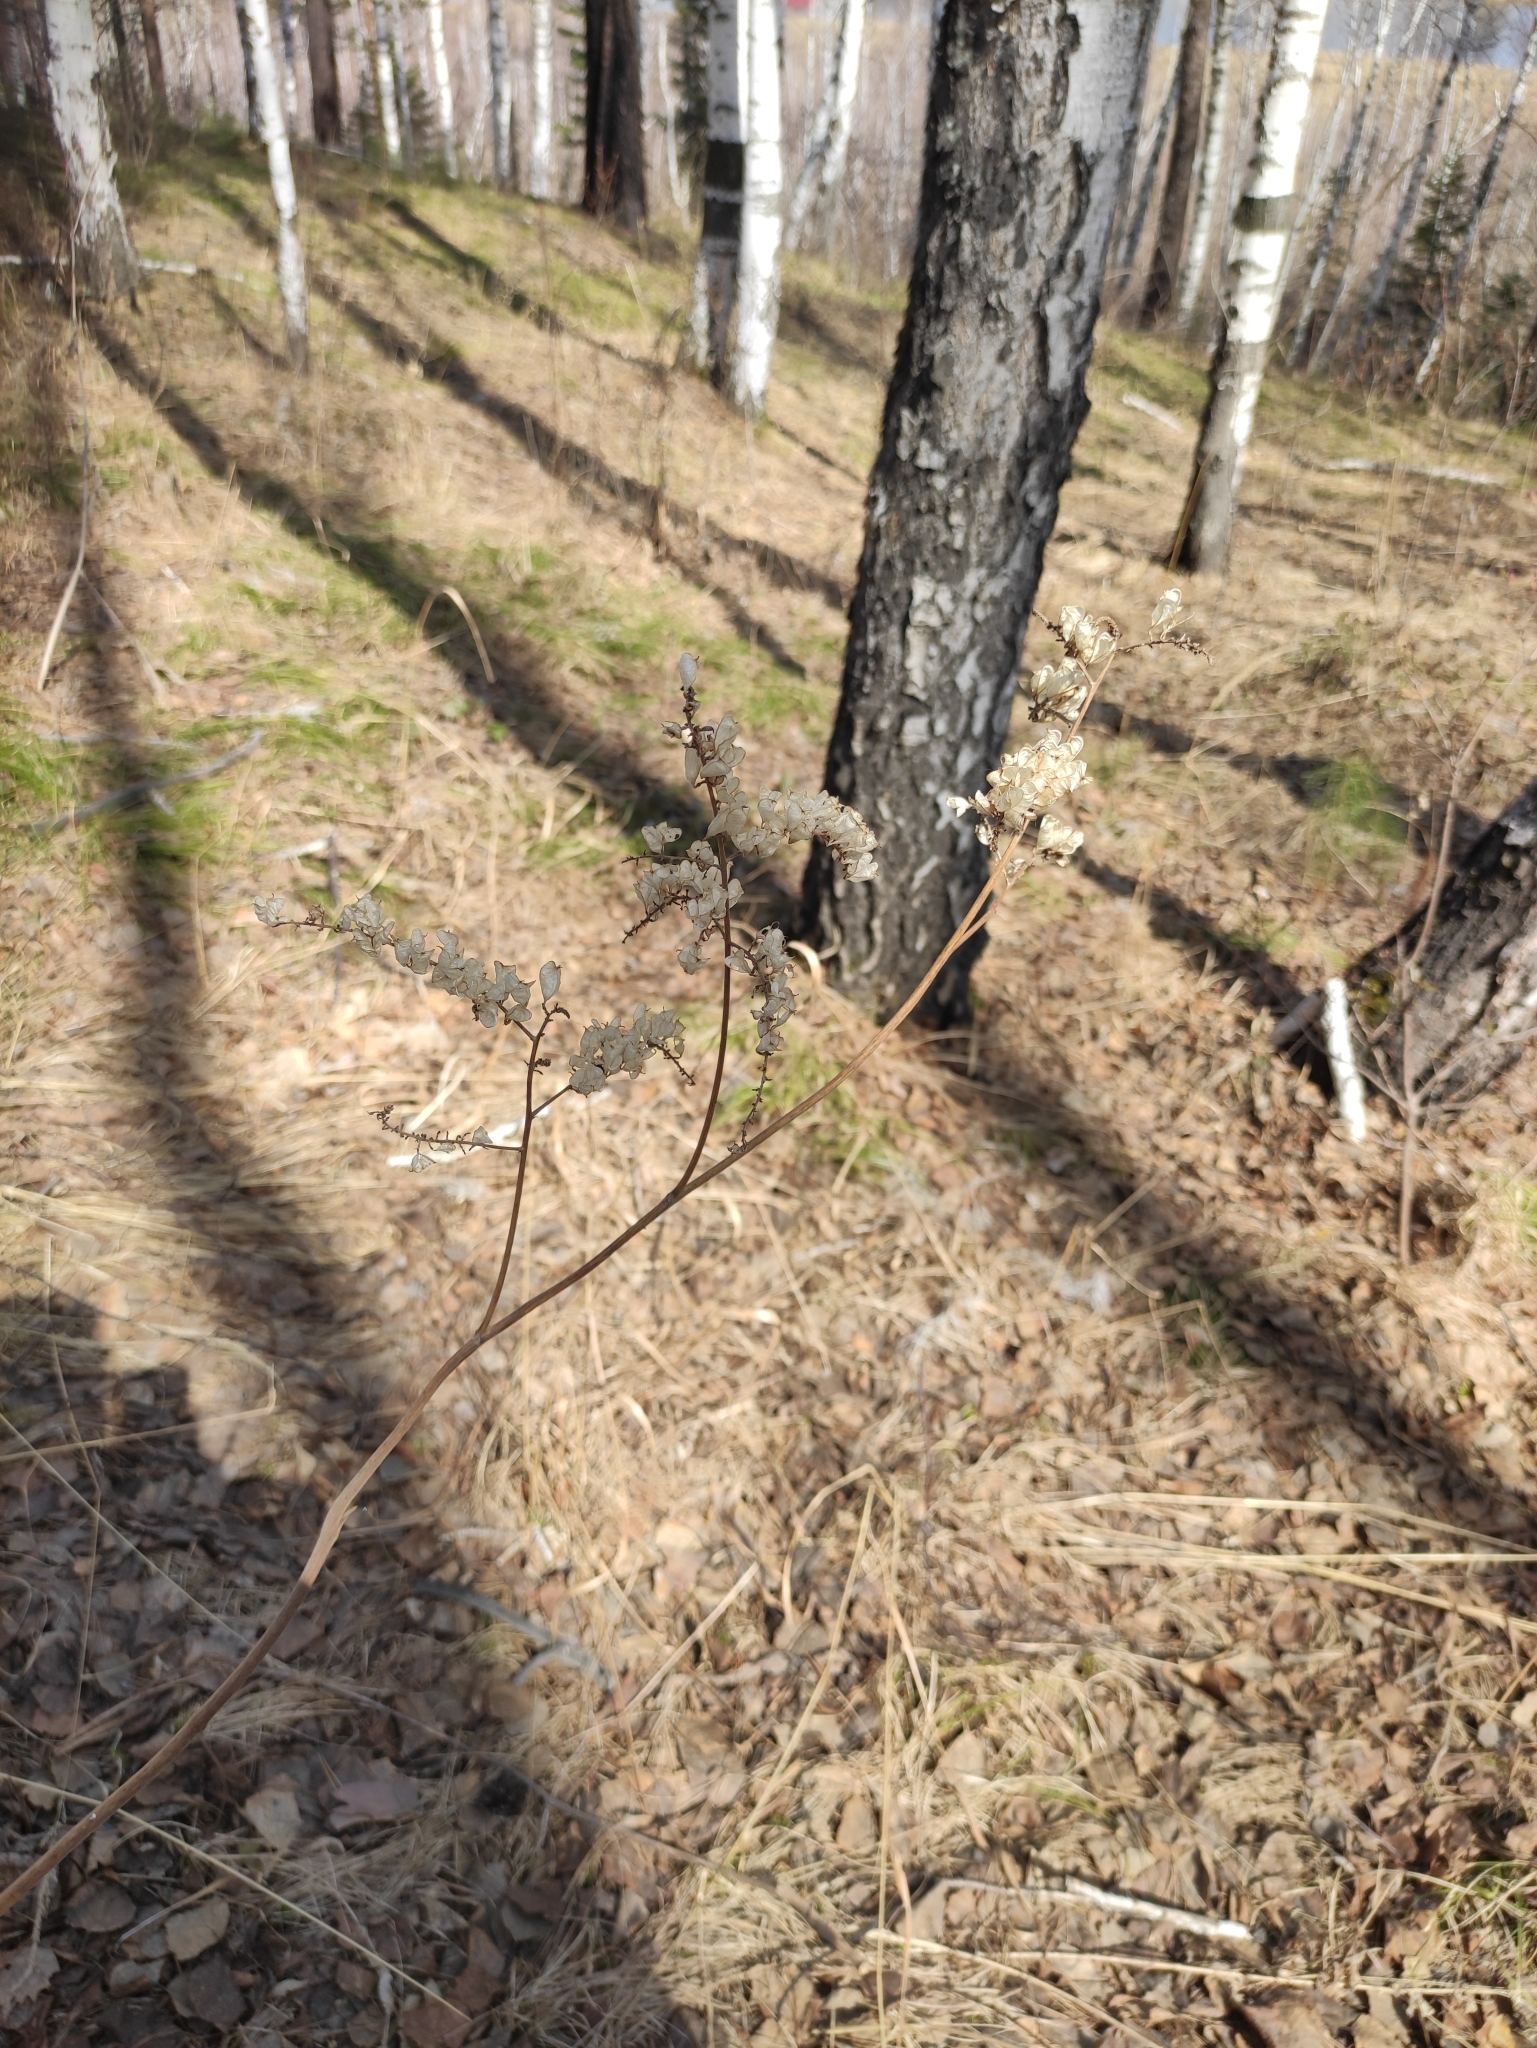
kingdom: Plantae
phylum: Tracheophyta
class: Magnoliopsida
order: Ranunculales
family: Ranunculaceae
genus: Actaea
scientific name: Actaea cimicifuga
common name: Chinese cimicifuga
